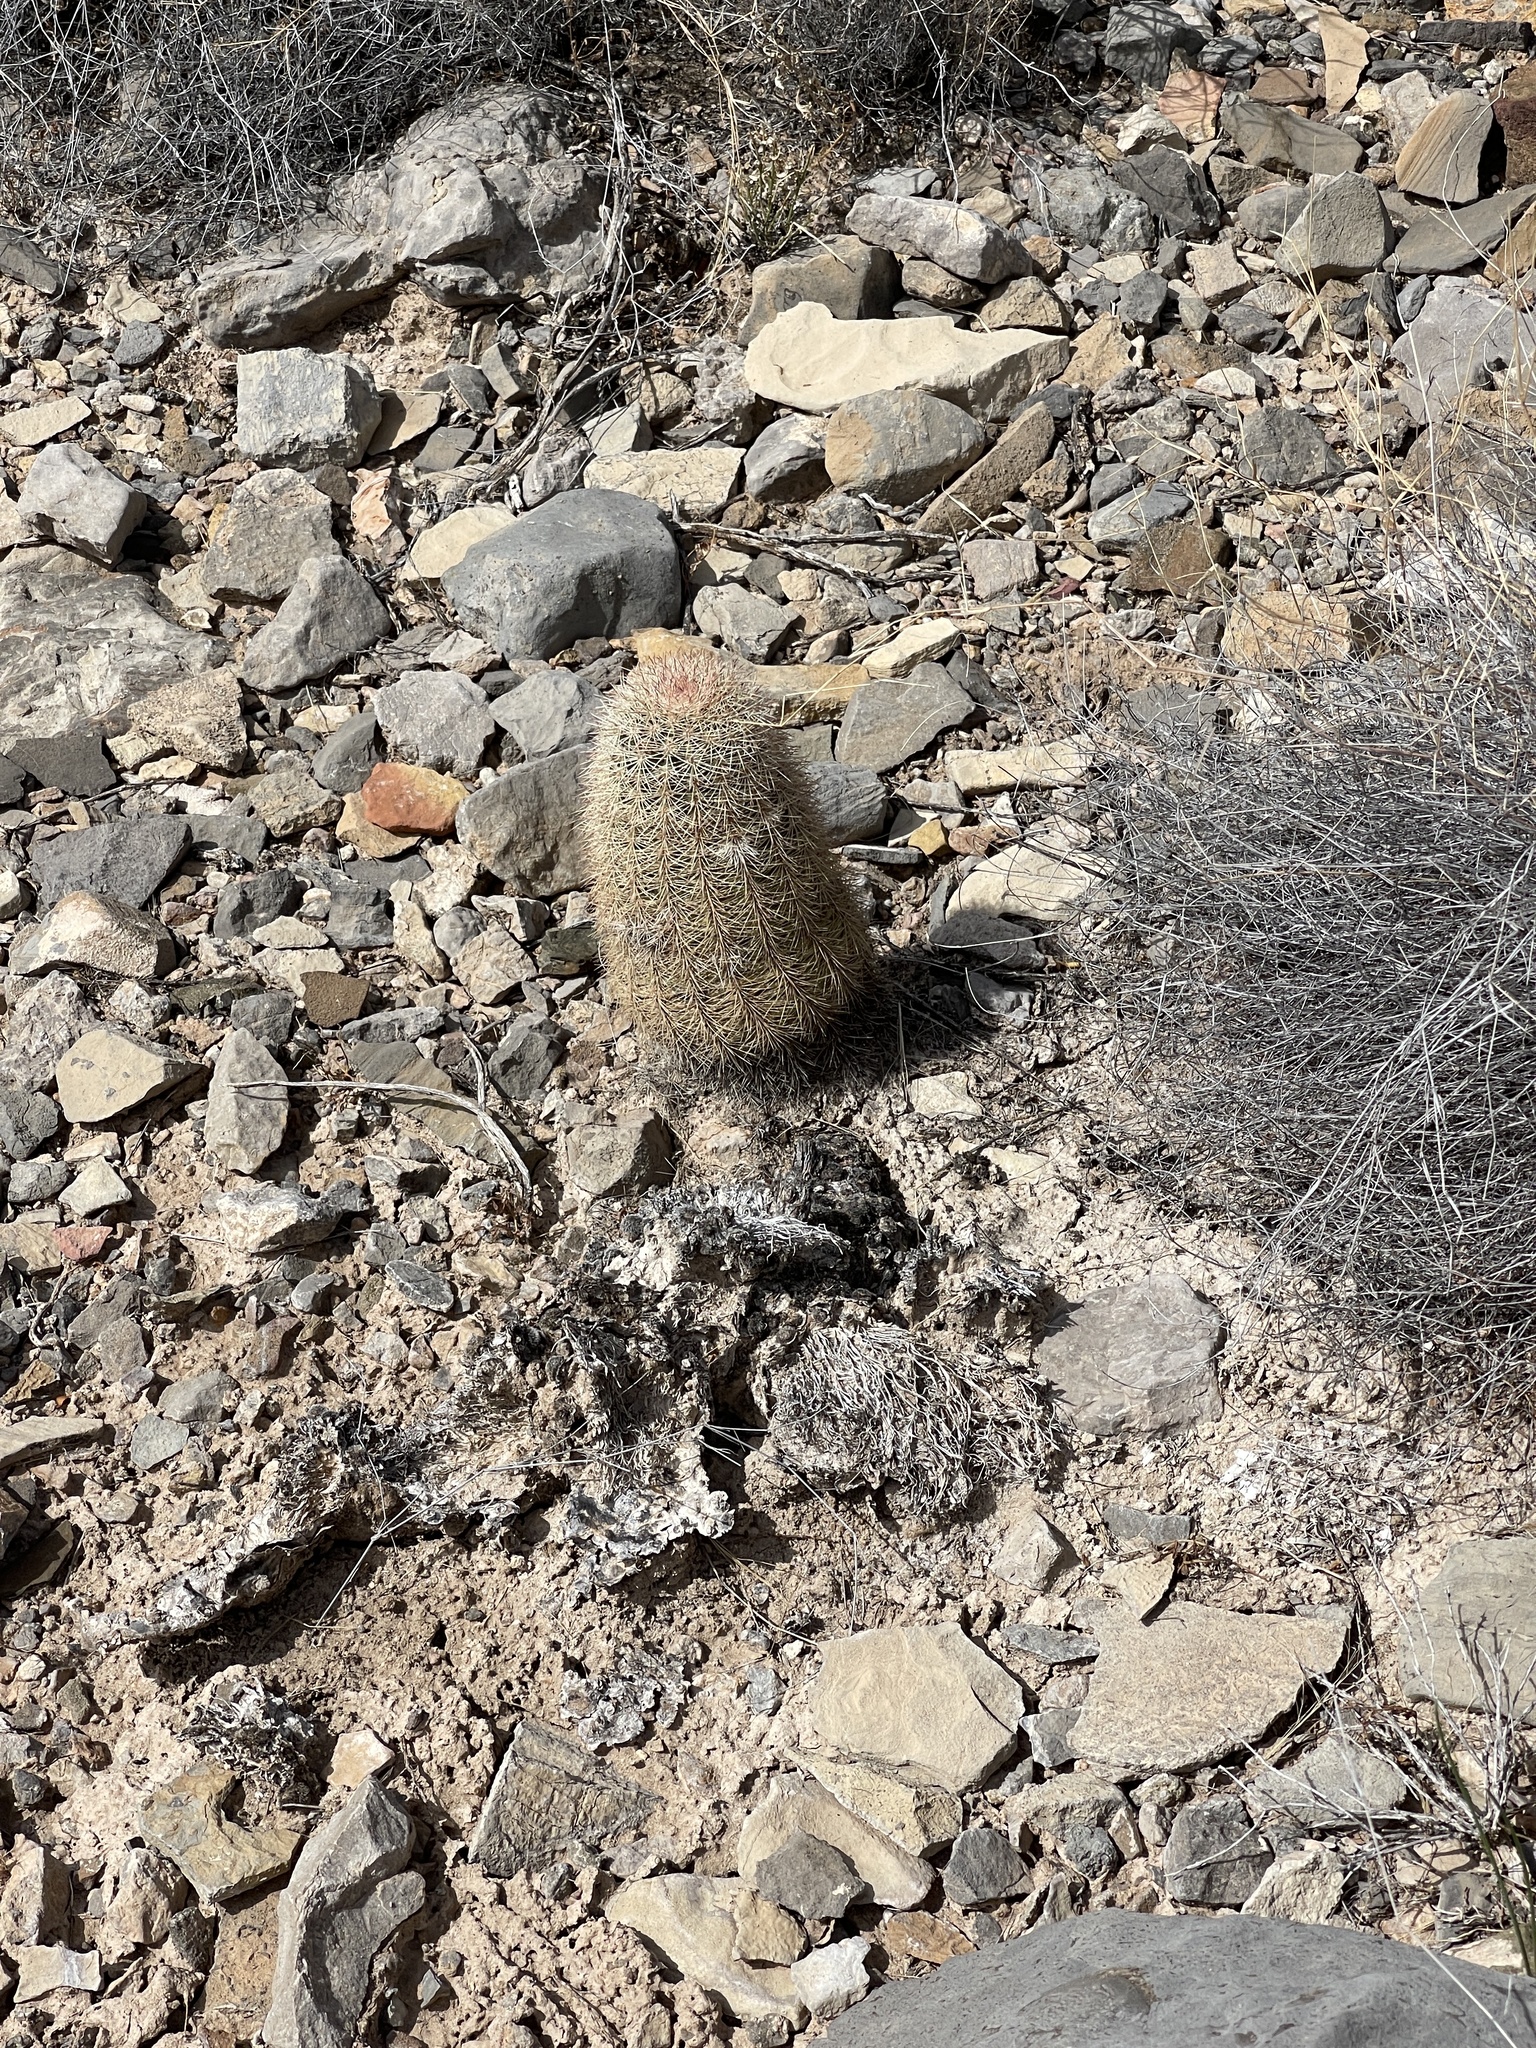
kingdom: Plantae
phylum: Tracheophyta
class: Magnoliopsida
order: Caryophyllales
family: Cactaceae
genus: Echinocereus
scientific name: Echinocereus dasyacanthus
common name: Spiny hedgehog cactus
